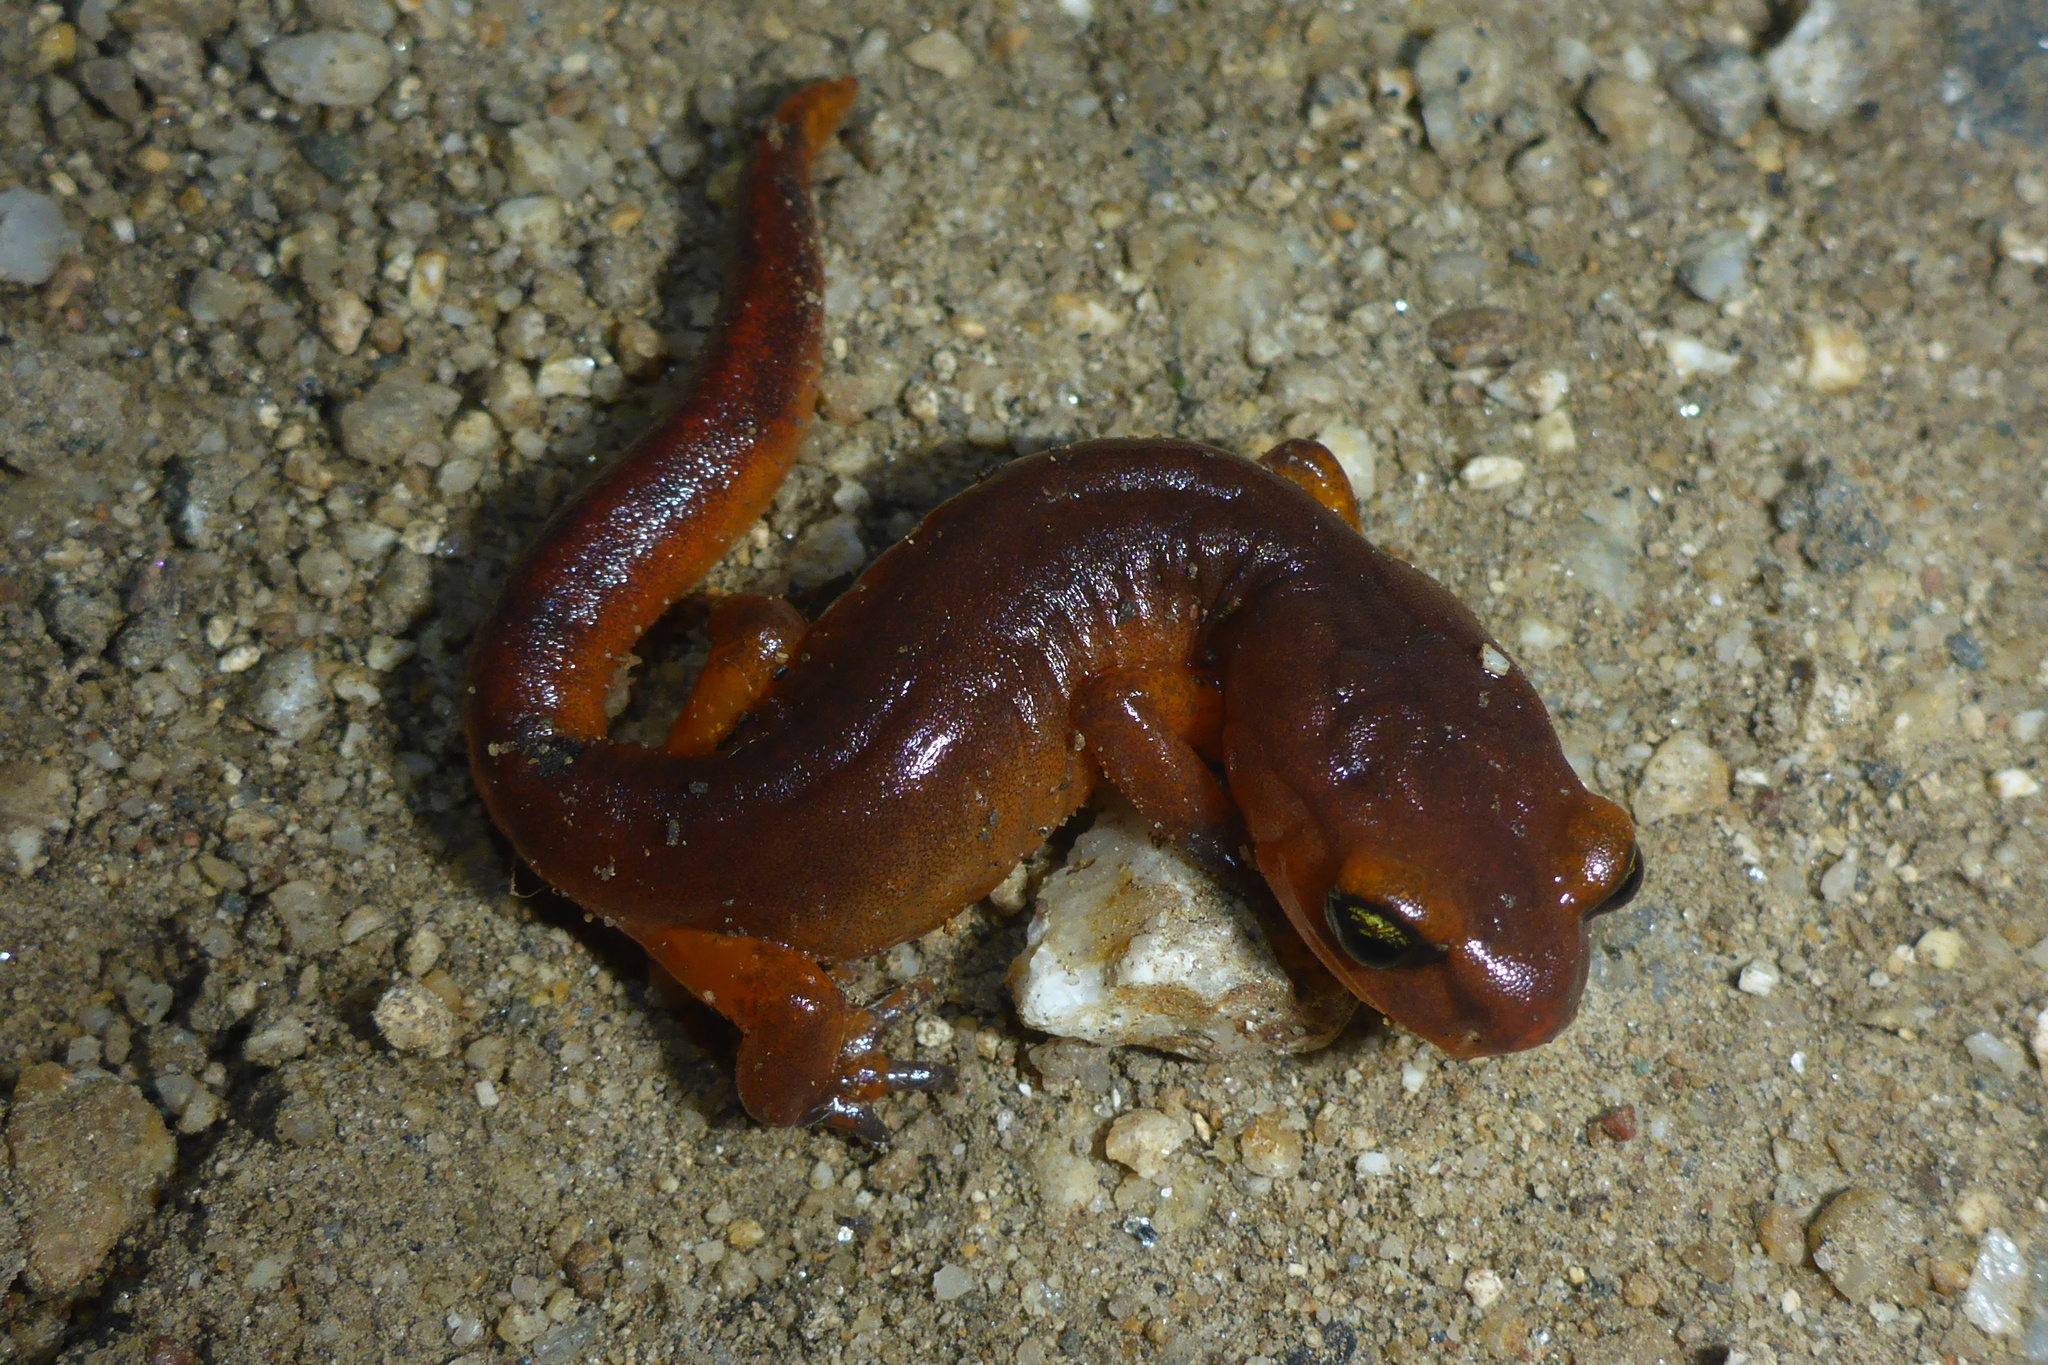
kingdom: Animalia
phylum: Chordata
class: Amphibia
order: Caudata
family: Plethodontidae
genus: Ensatina
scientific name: Ensatina eschscholtzii
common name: Ensatina
